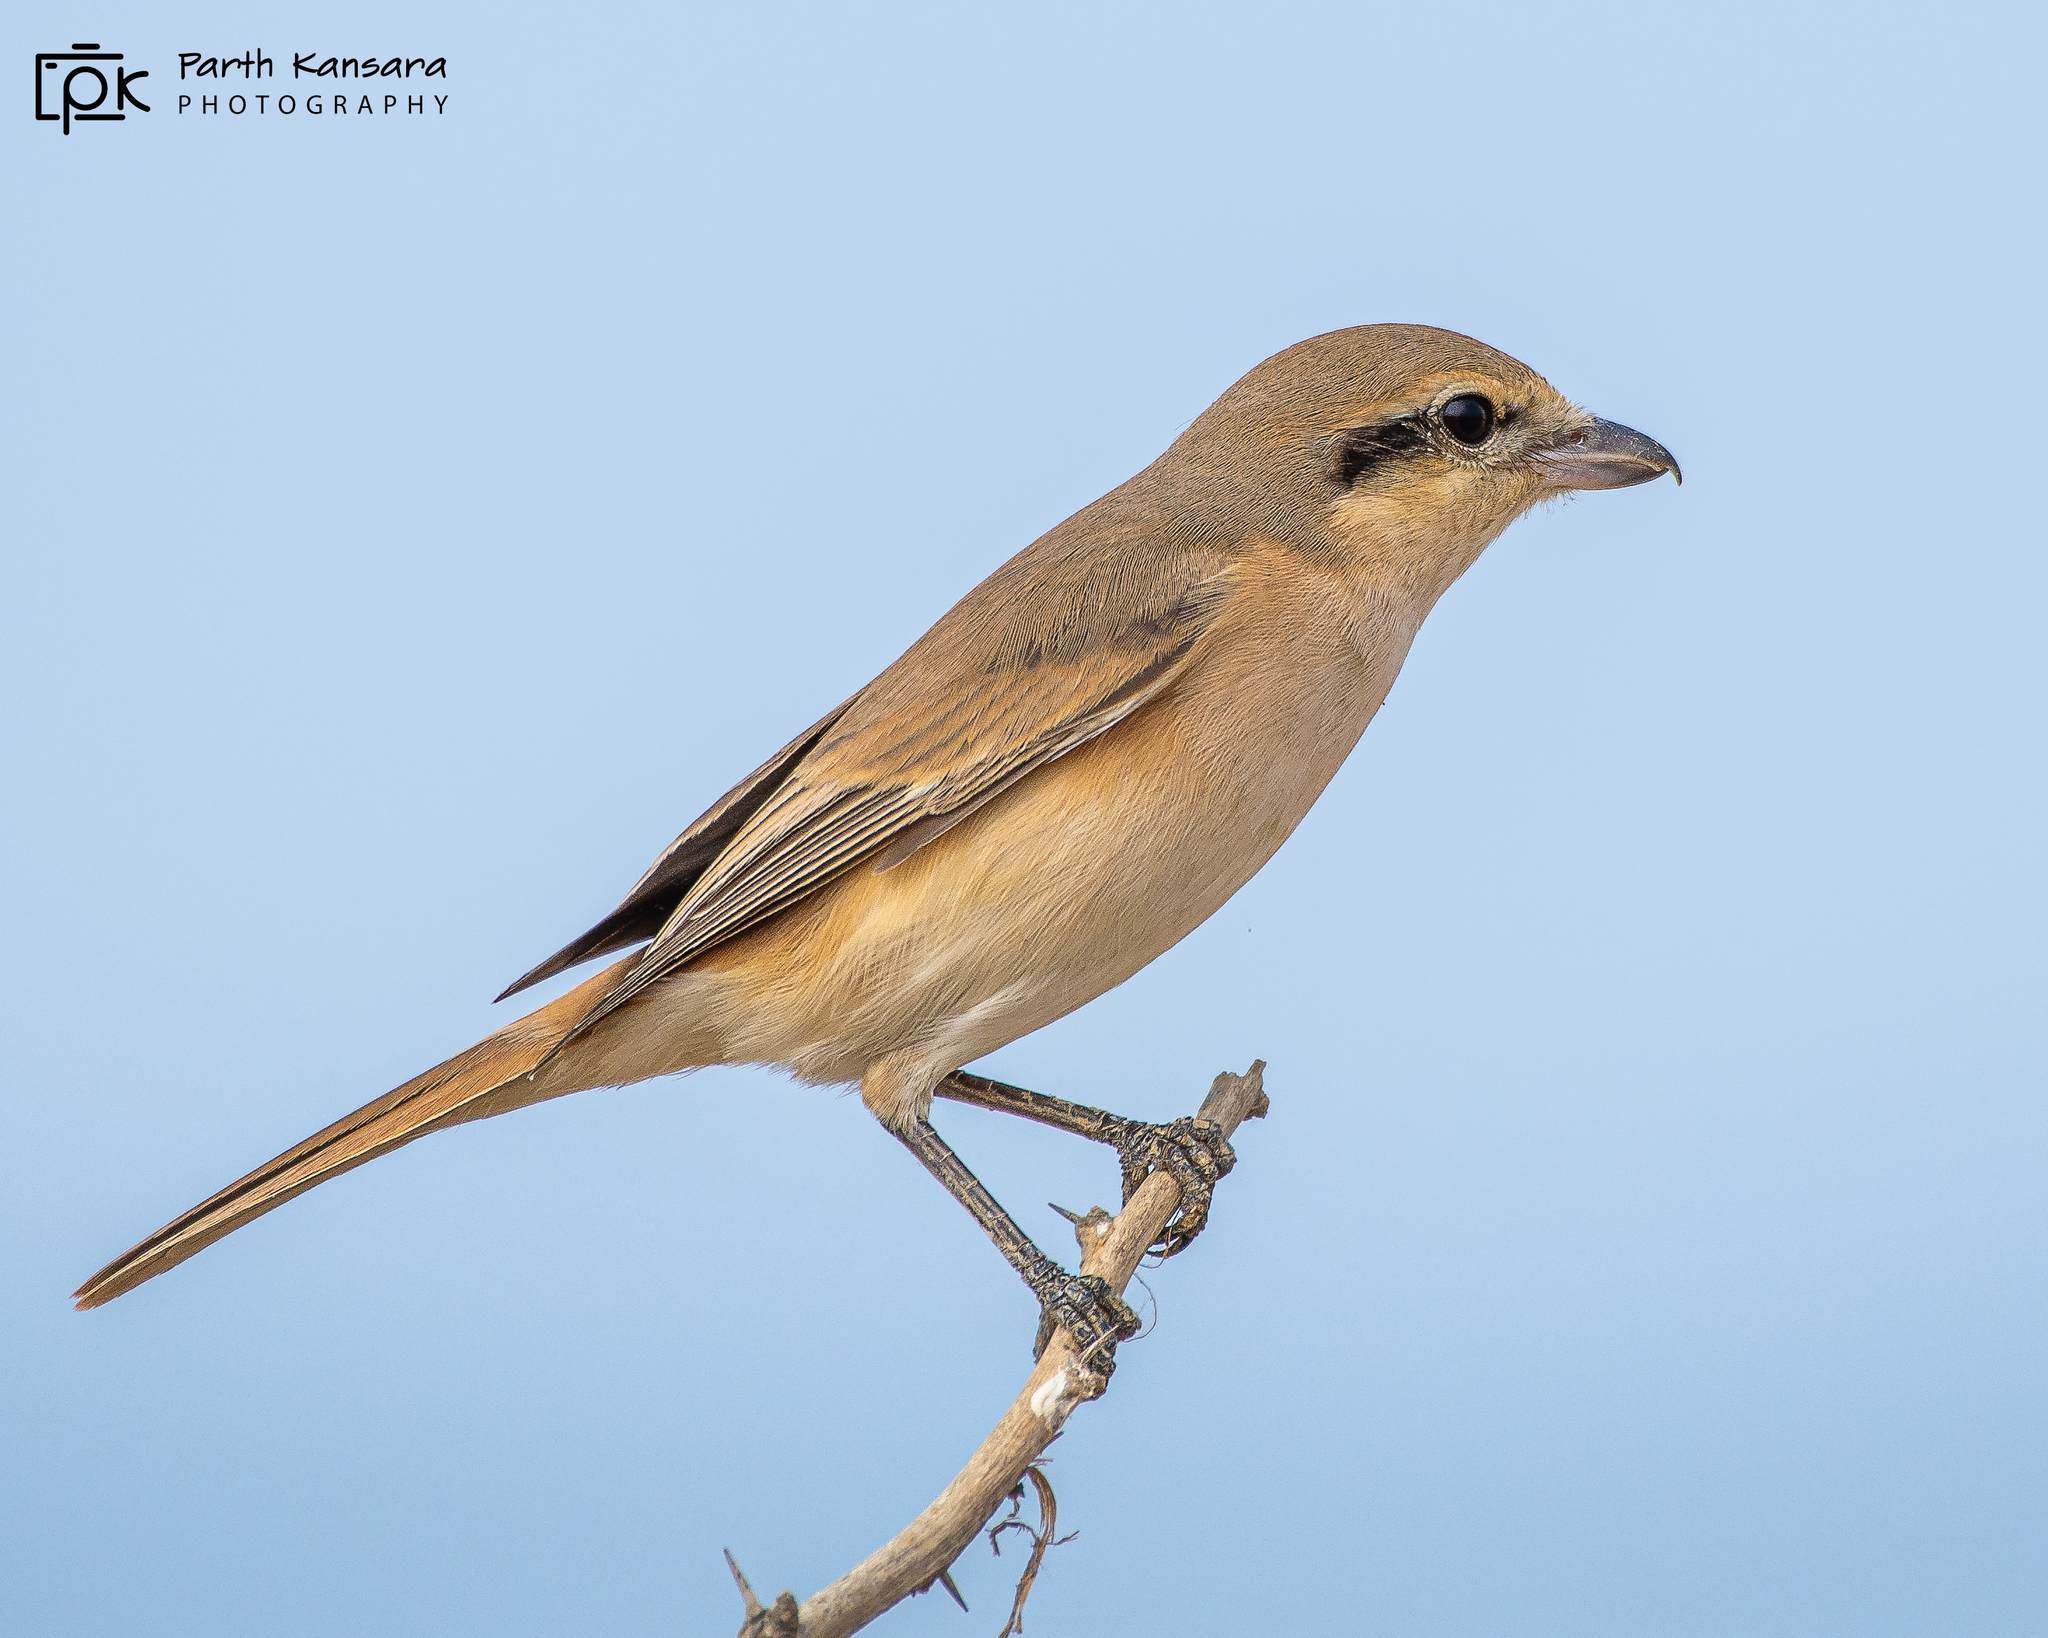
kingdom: Animalia
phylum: Chordata
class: Aves
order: Passeriformes
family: Laniidae
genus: Lanius
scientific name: Lanius isabellinus
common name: Isabelline shrike
